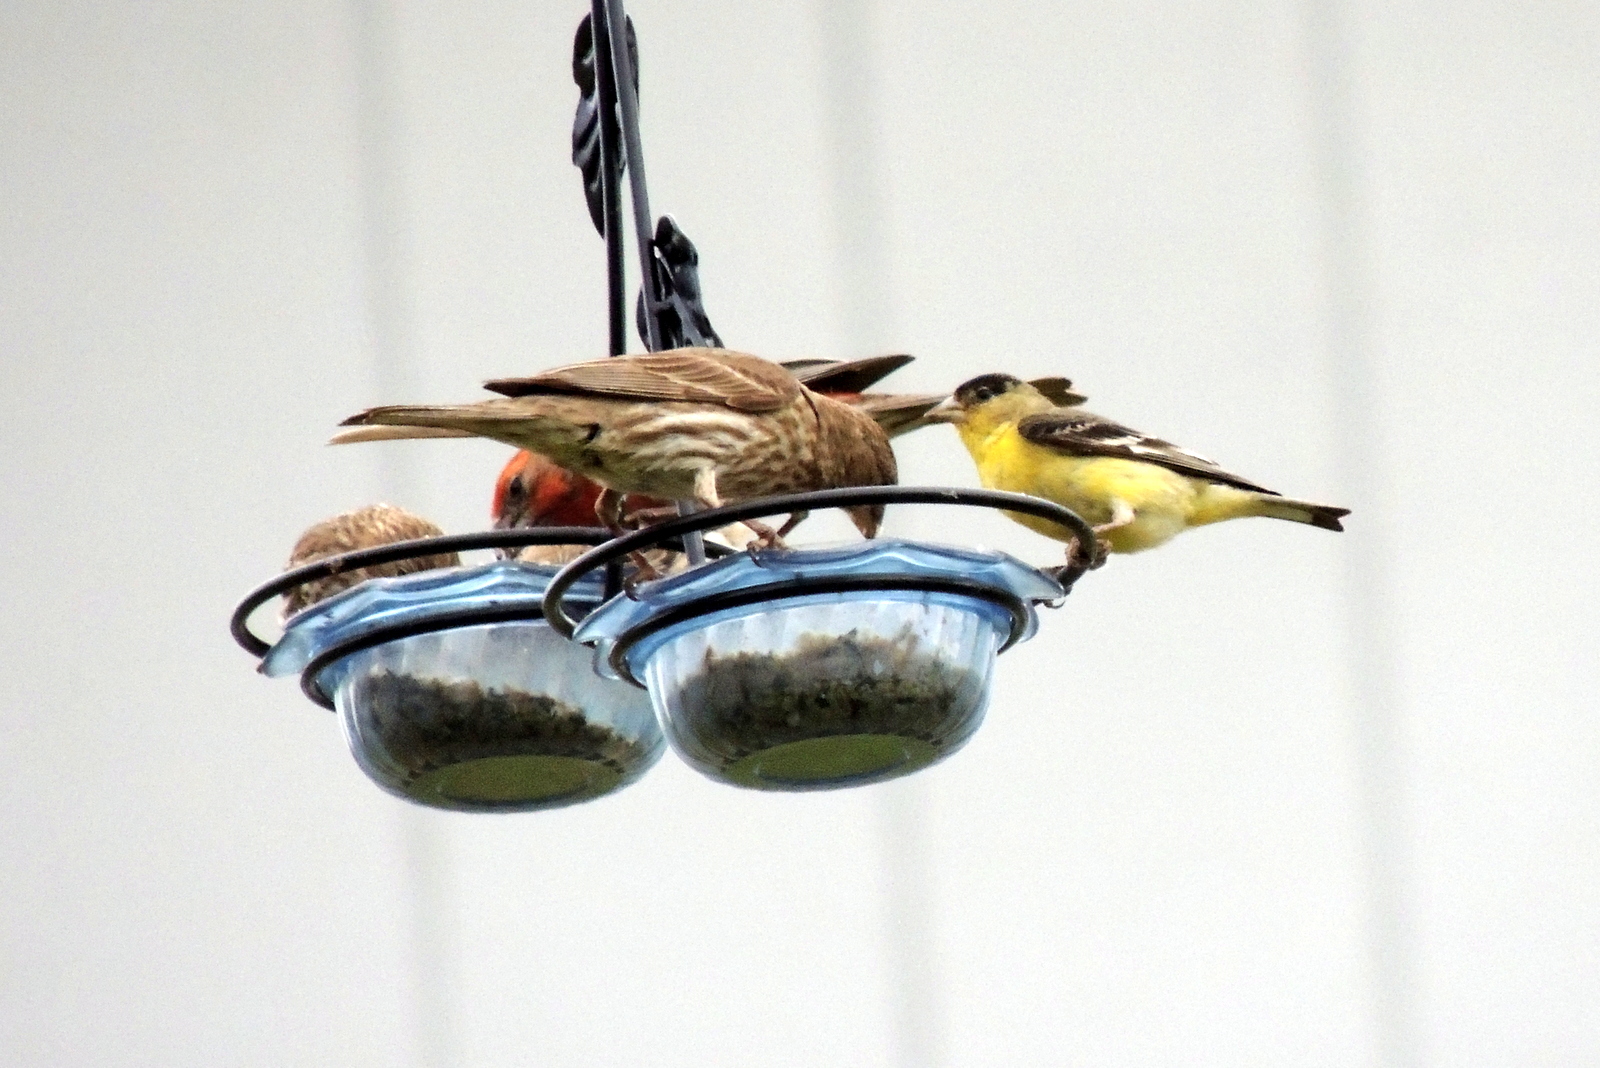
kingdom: Animalia
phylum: Chordata
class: Aves
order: Passeriformes
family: Fringillidae
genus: Haemorhous
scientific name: Haemorhous mexicanus
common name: House finch
